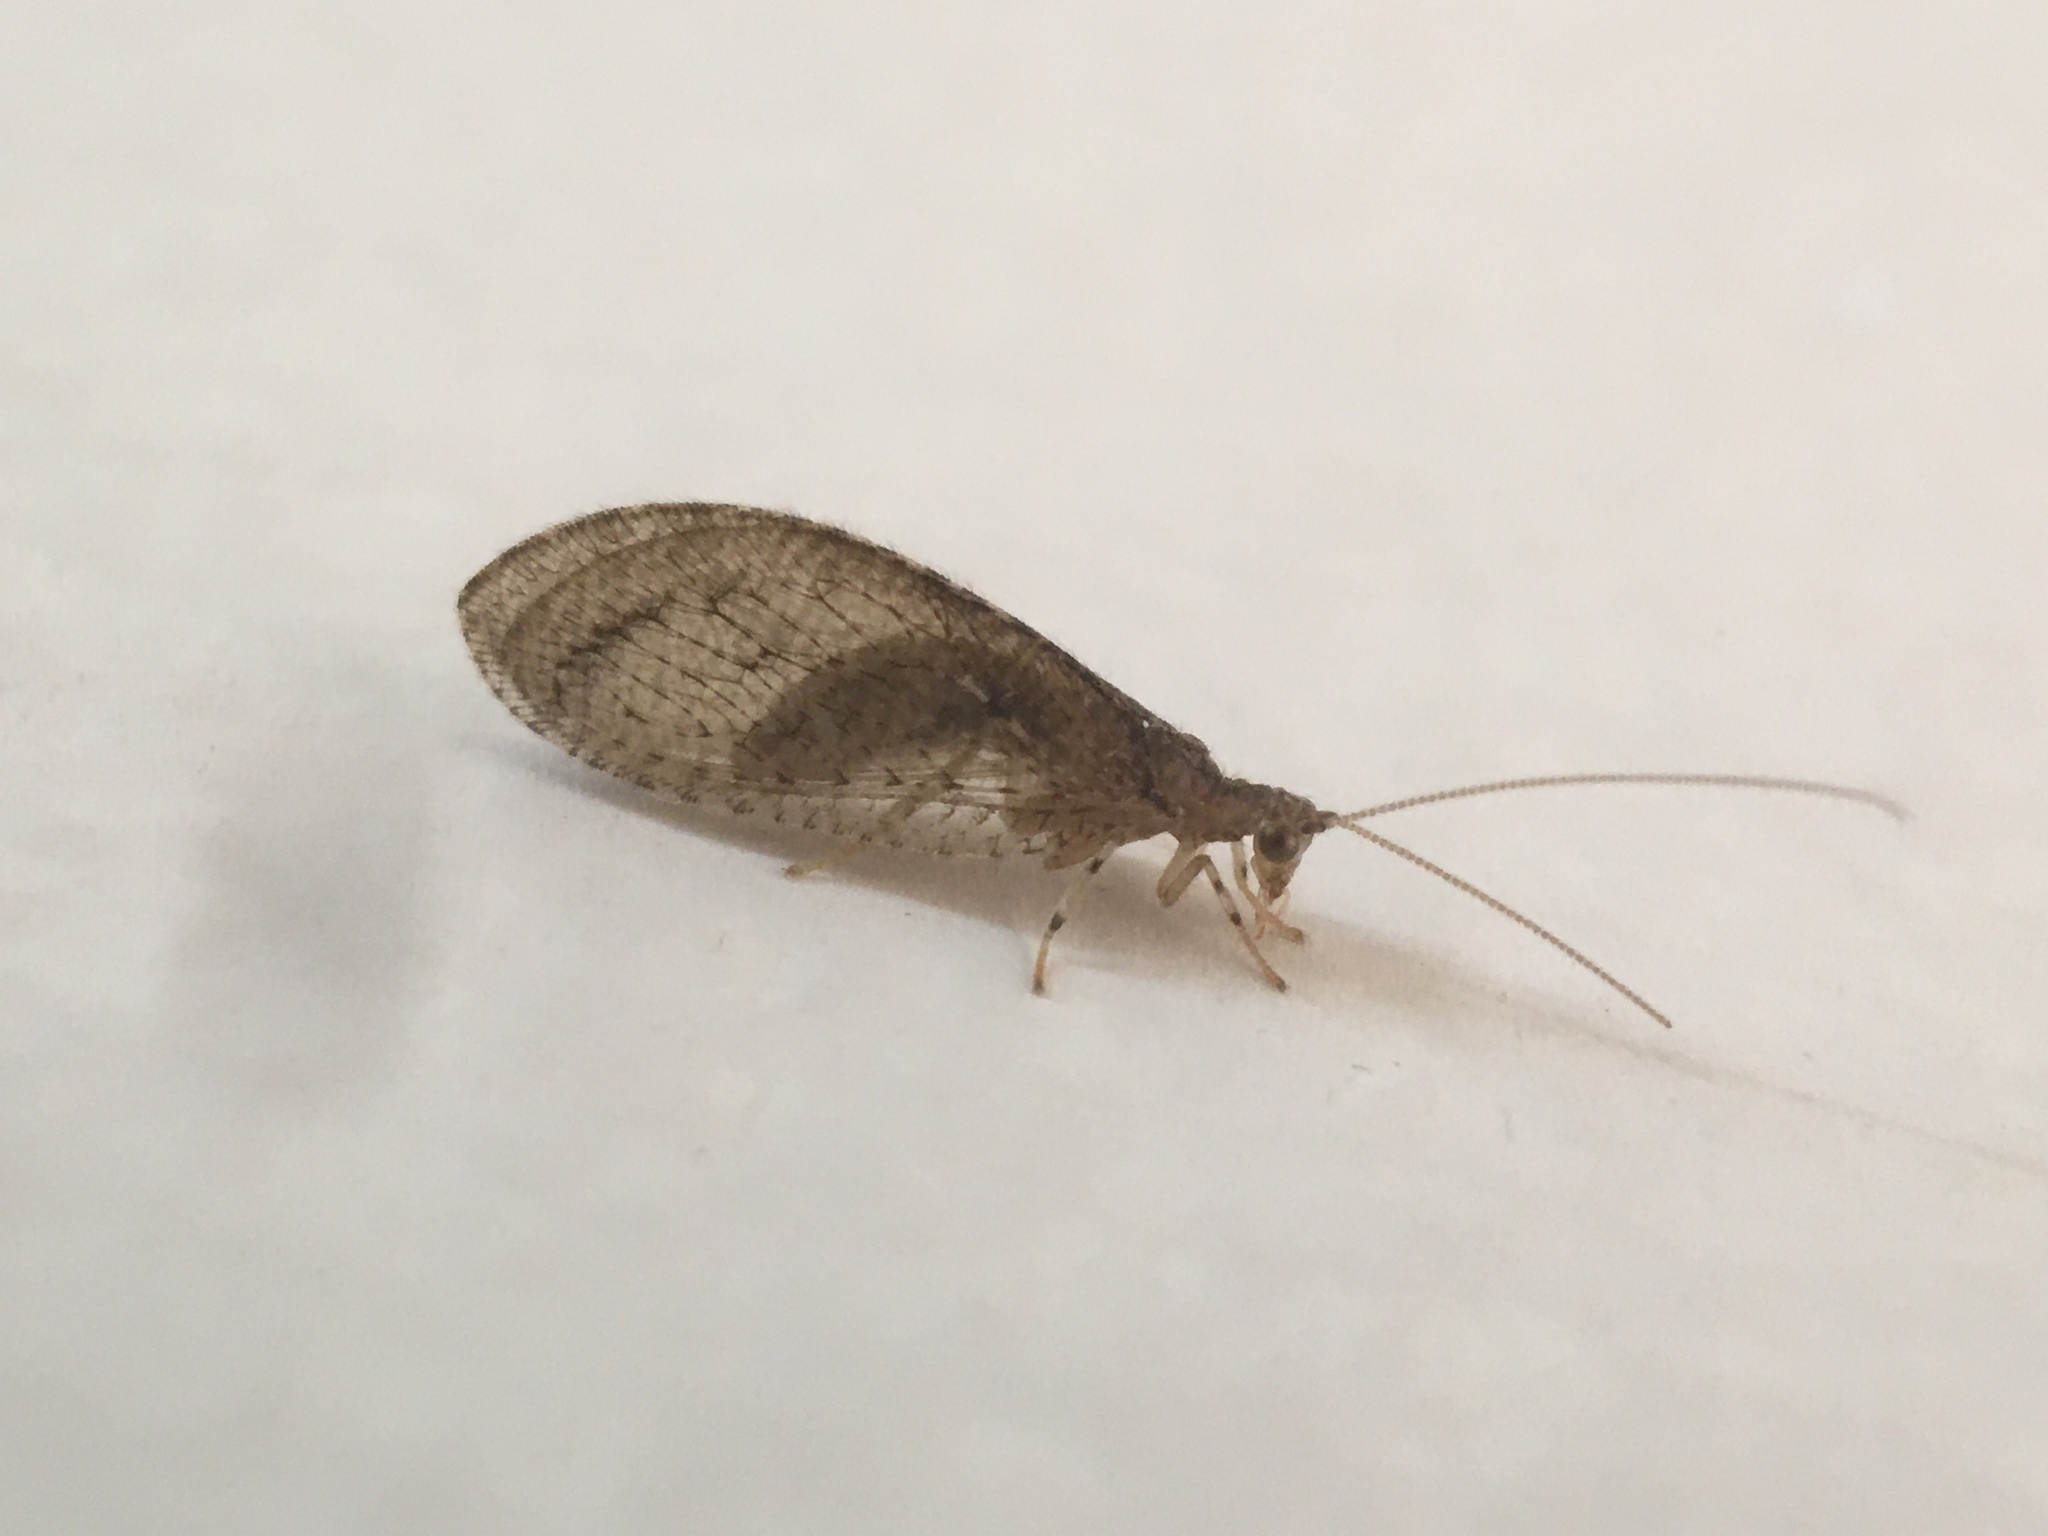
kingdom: Animalia
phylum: Arthropoda
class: Insecta
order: Neuroptera
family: Hemerobiidae
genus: Nusalala
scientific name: Nusalala tessellata
